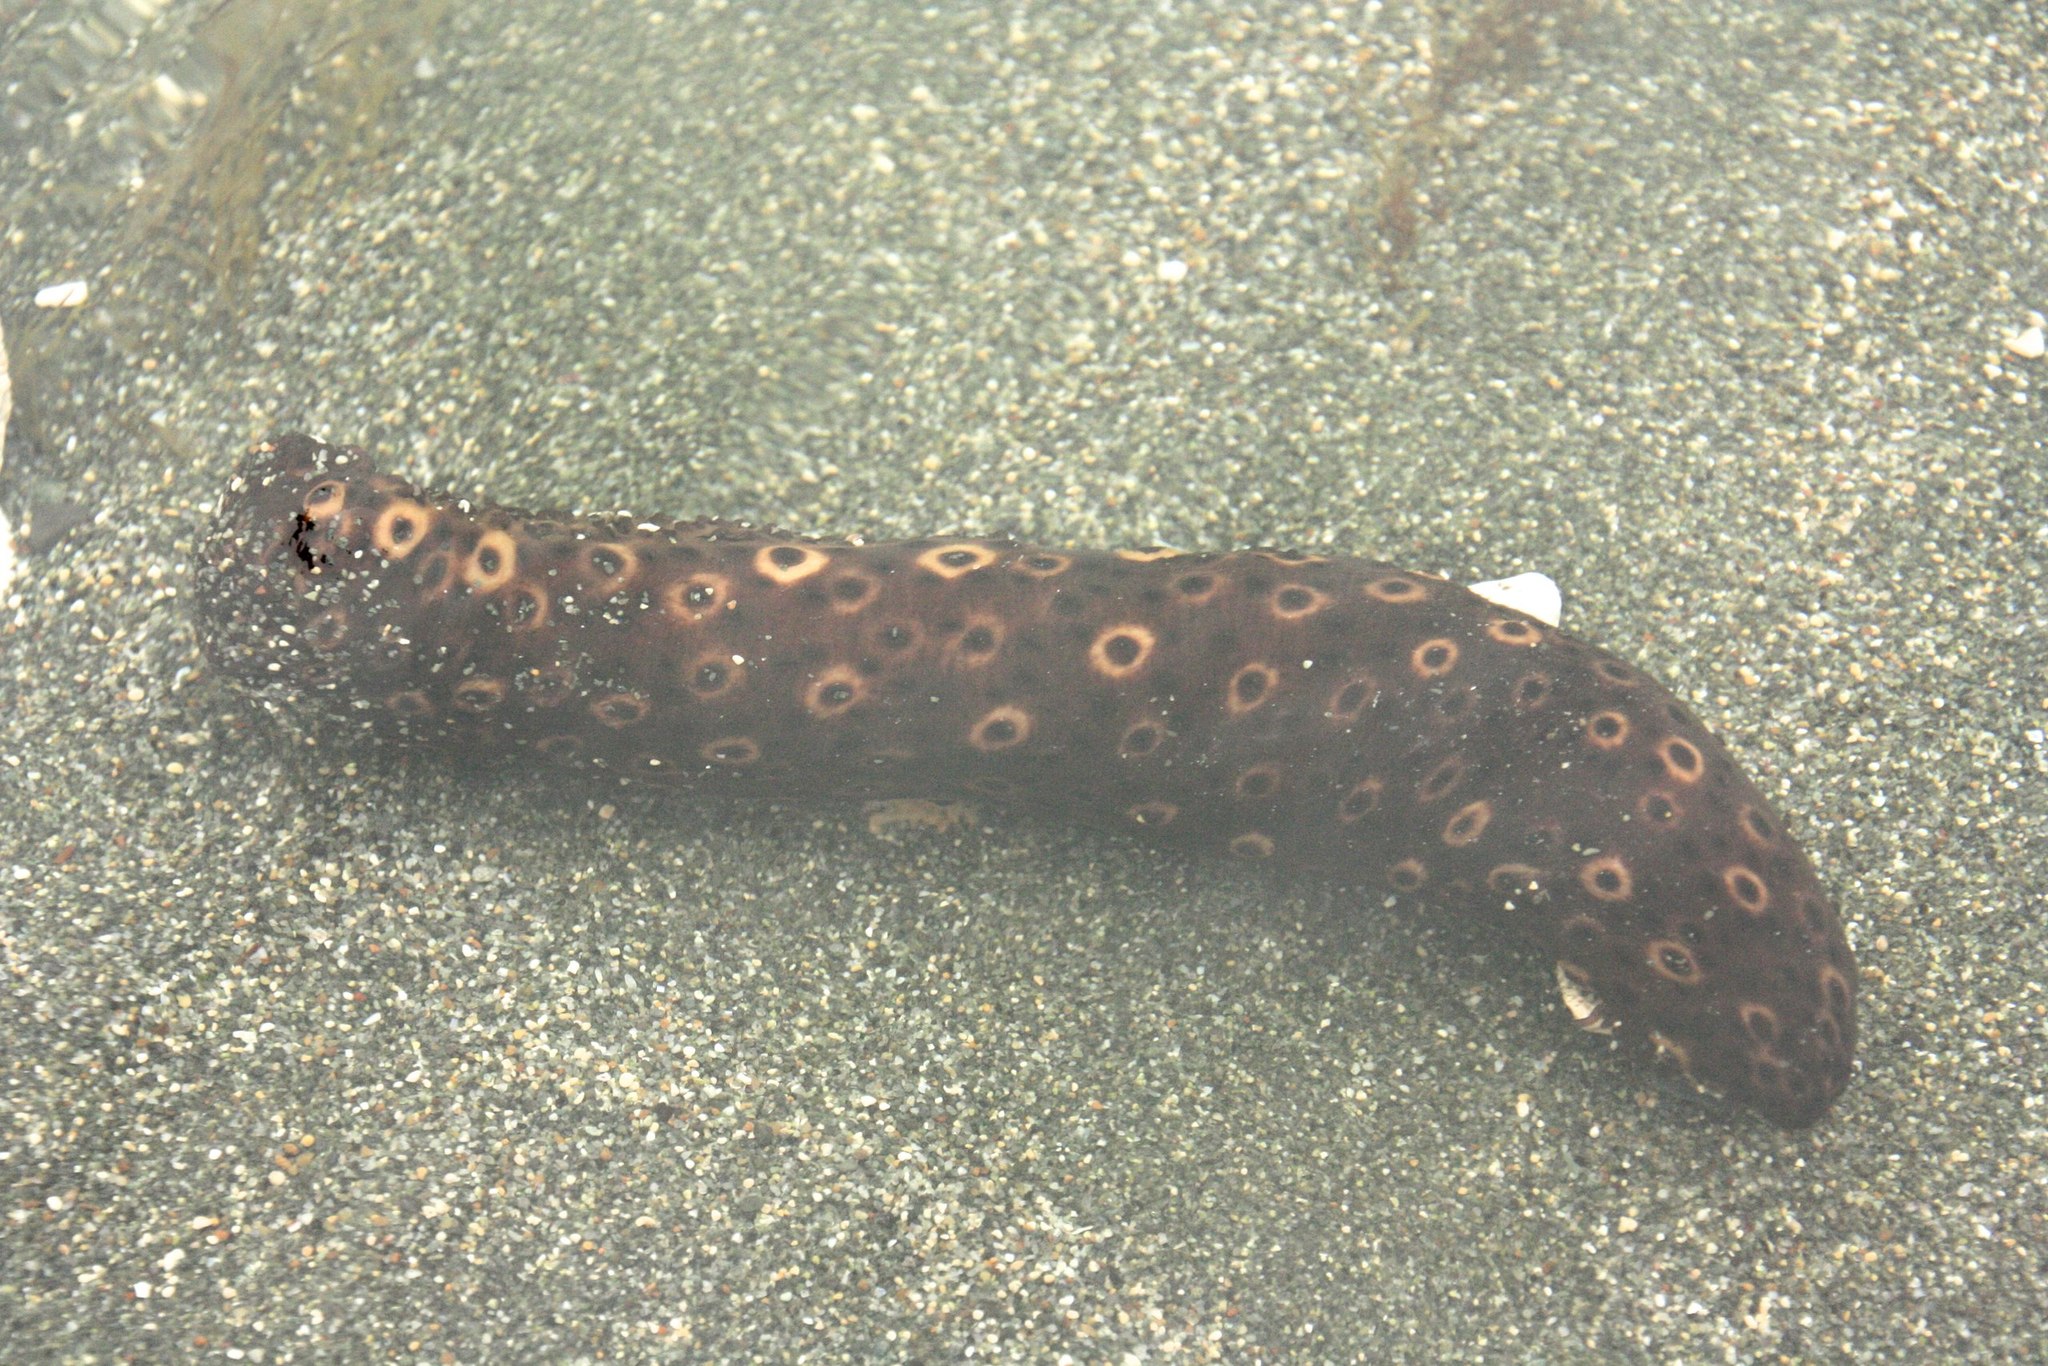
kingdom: Animalia
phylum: Echinodermata
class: Holothuroidea
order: Holothuriida
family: Holothuriidae
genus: Holothuria
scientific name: Holothuria sanctori
